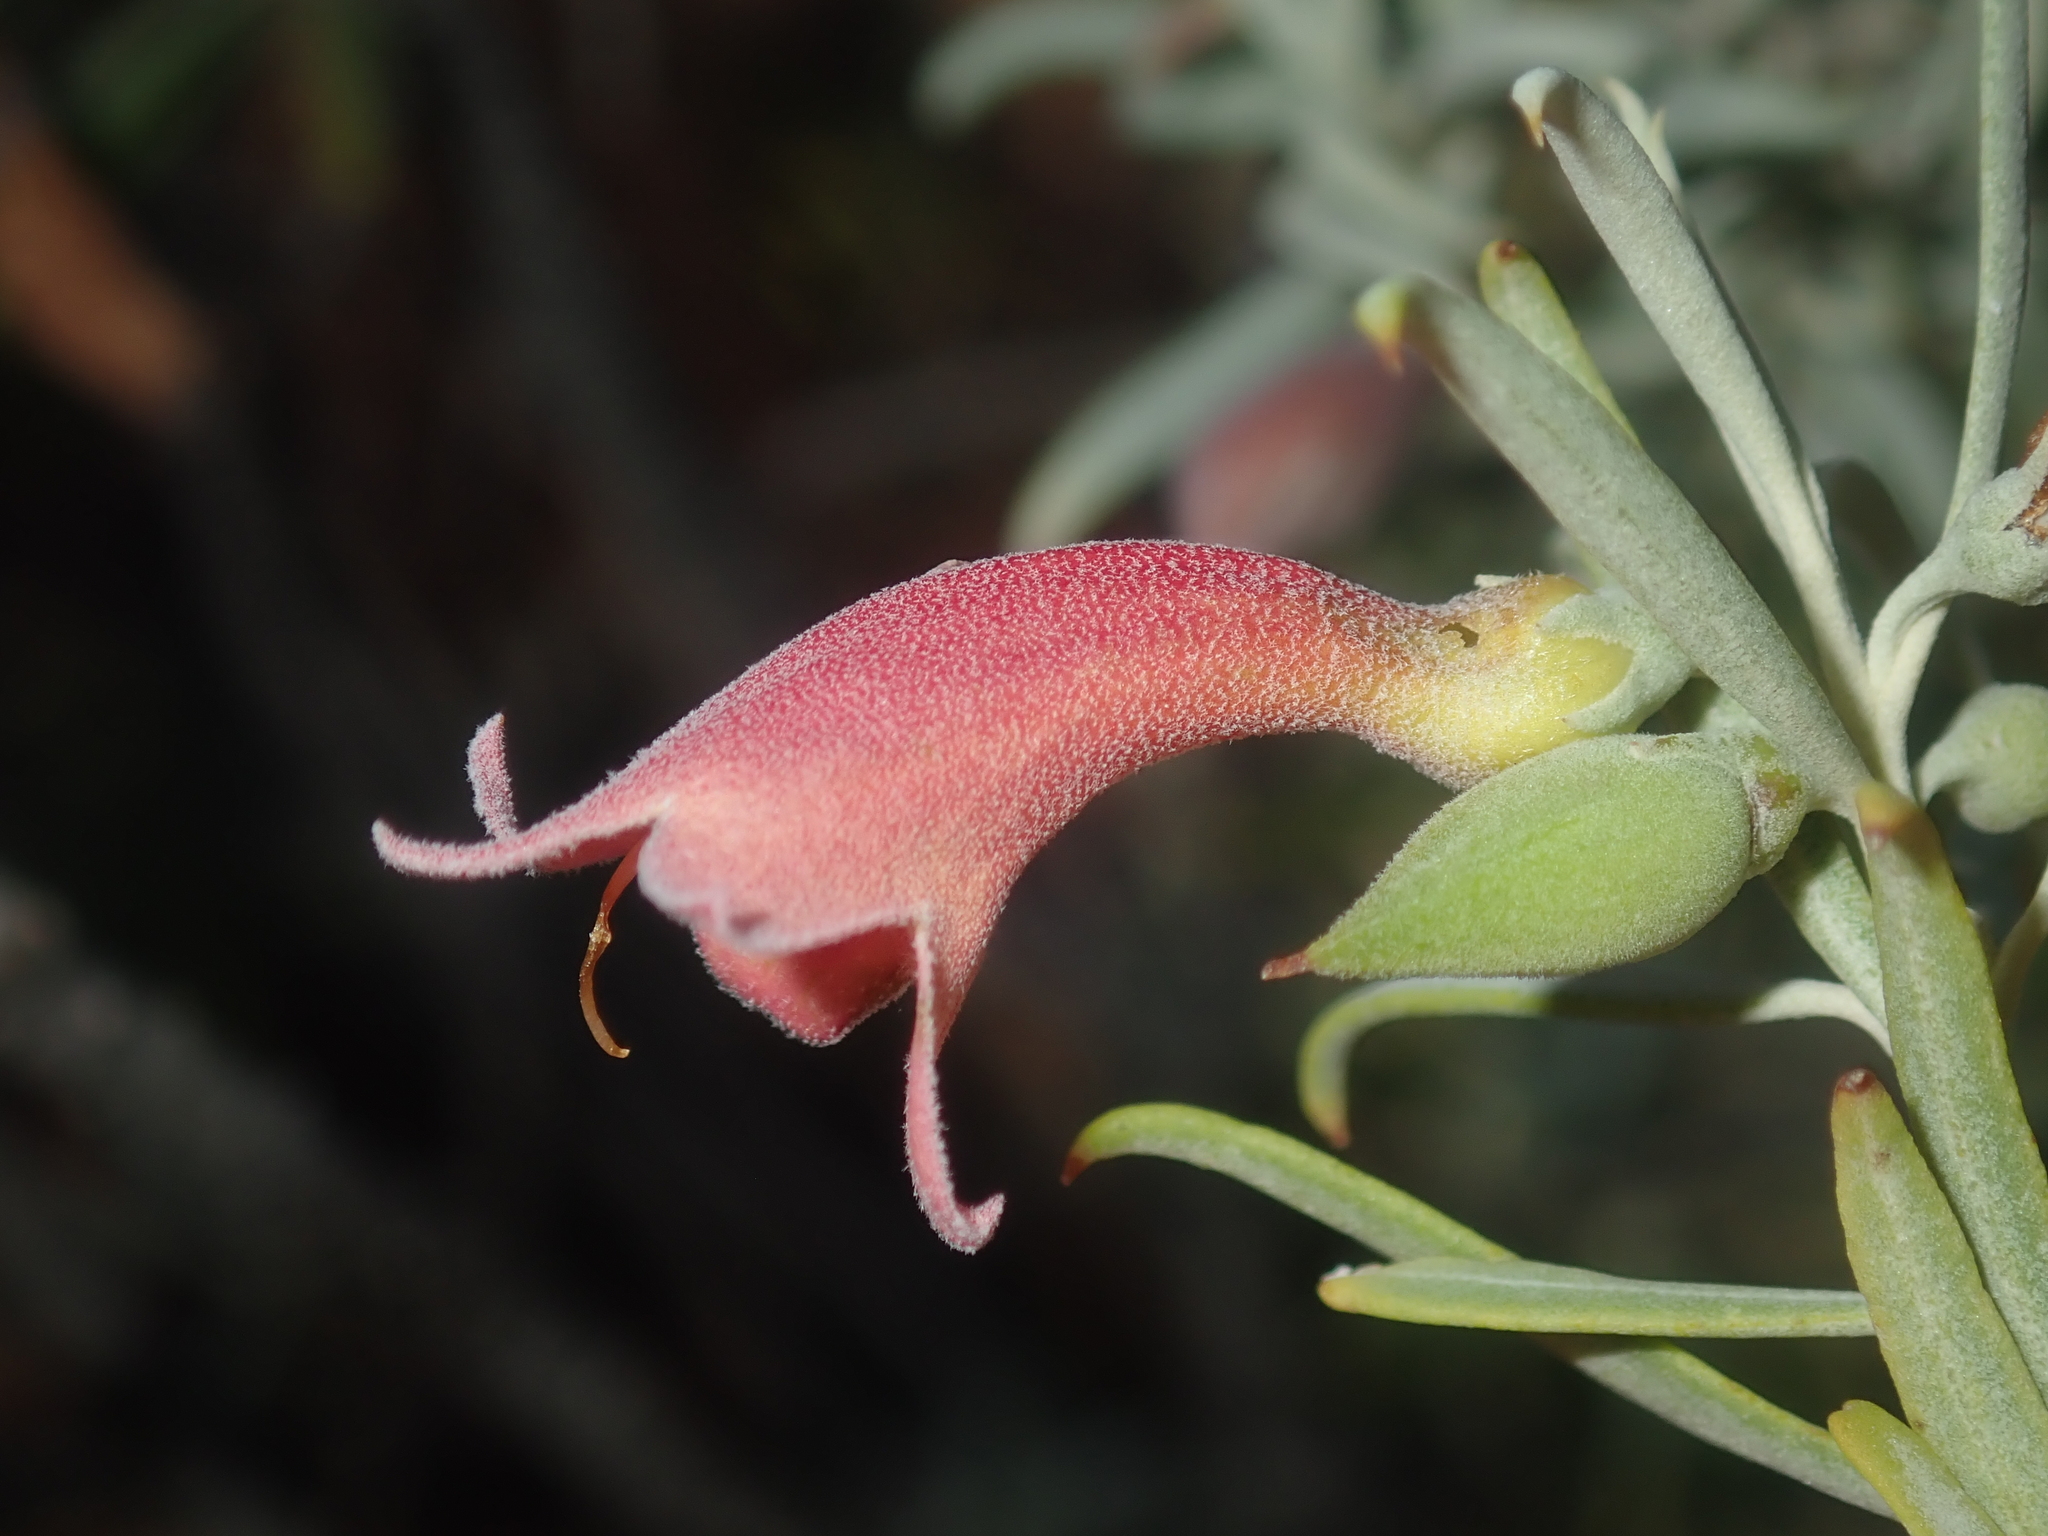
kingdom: Plantae
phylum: Tracheophyta
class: Magnoliopsida
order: Lamiales
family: Scrophulariaceae
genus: Eremophila
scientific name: Eremophila youngii
